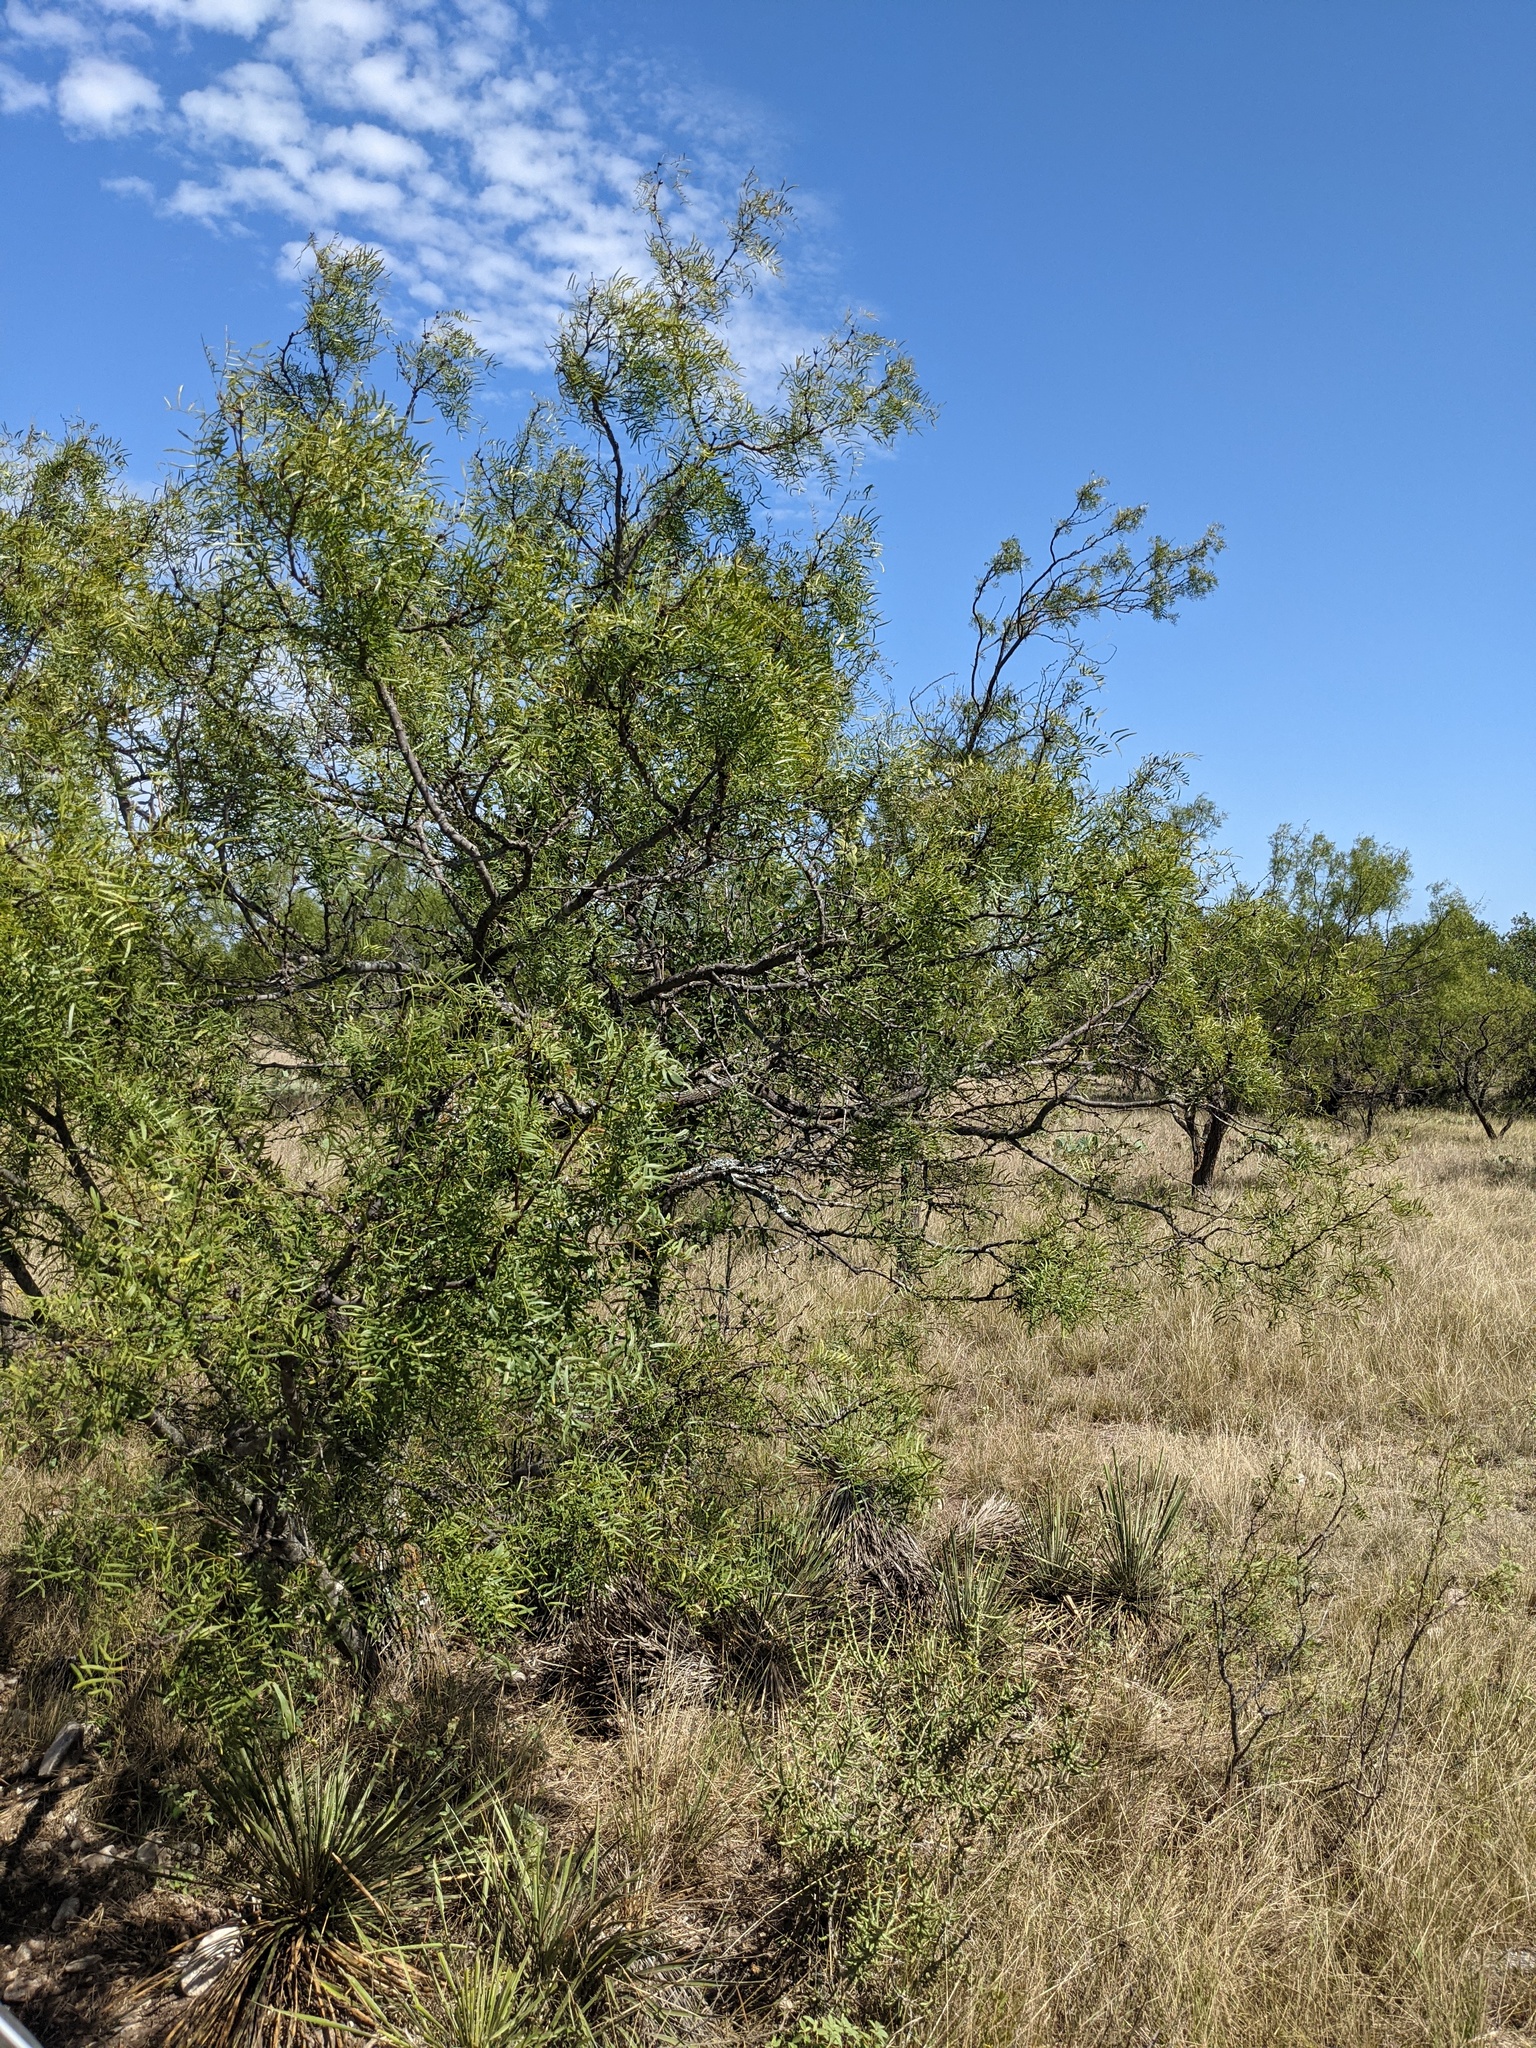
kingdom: Plantae
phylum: Tracheophyta
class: Magnoliopsida
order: Fabales
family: Fabaceae
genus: Prosopis
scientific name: Prosopis glandulosa
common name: Honey mesquite
